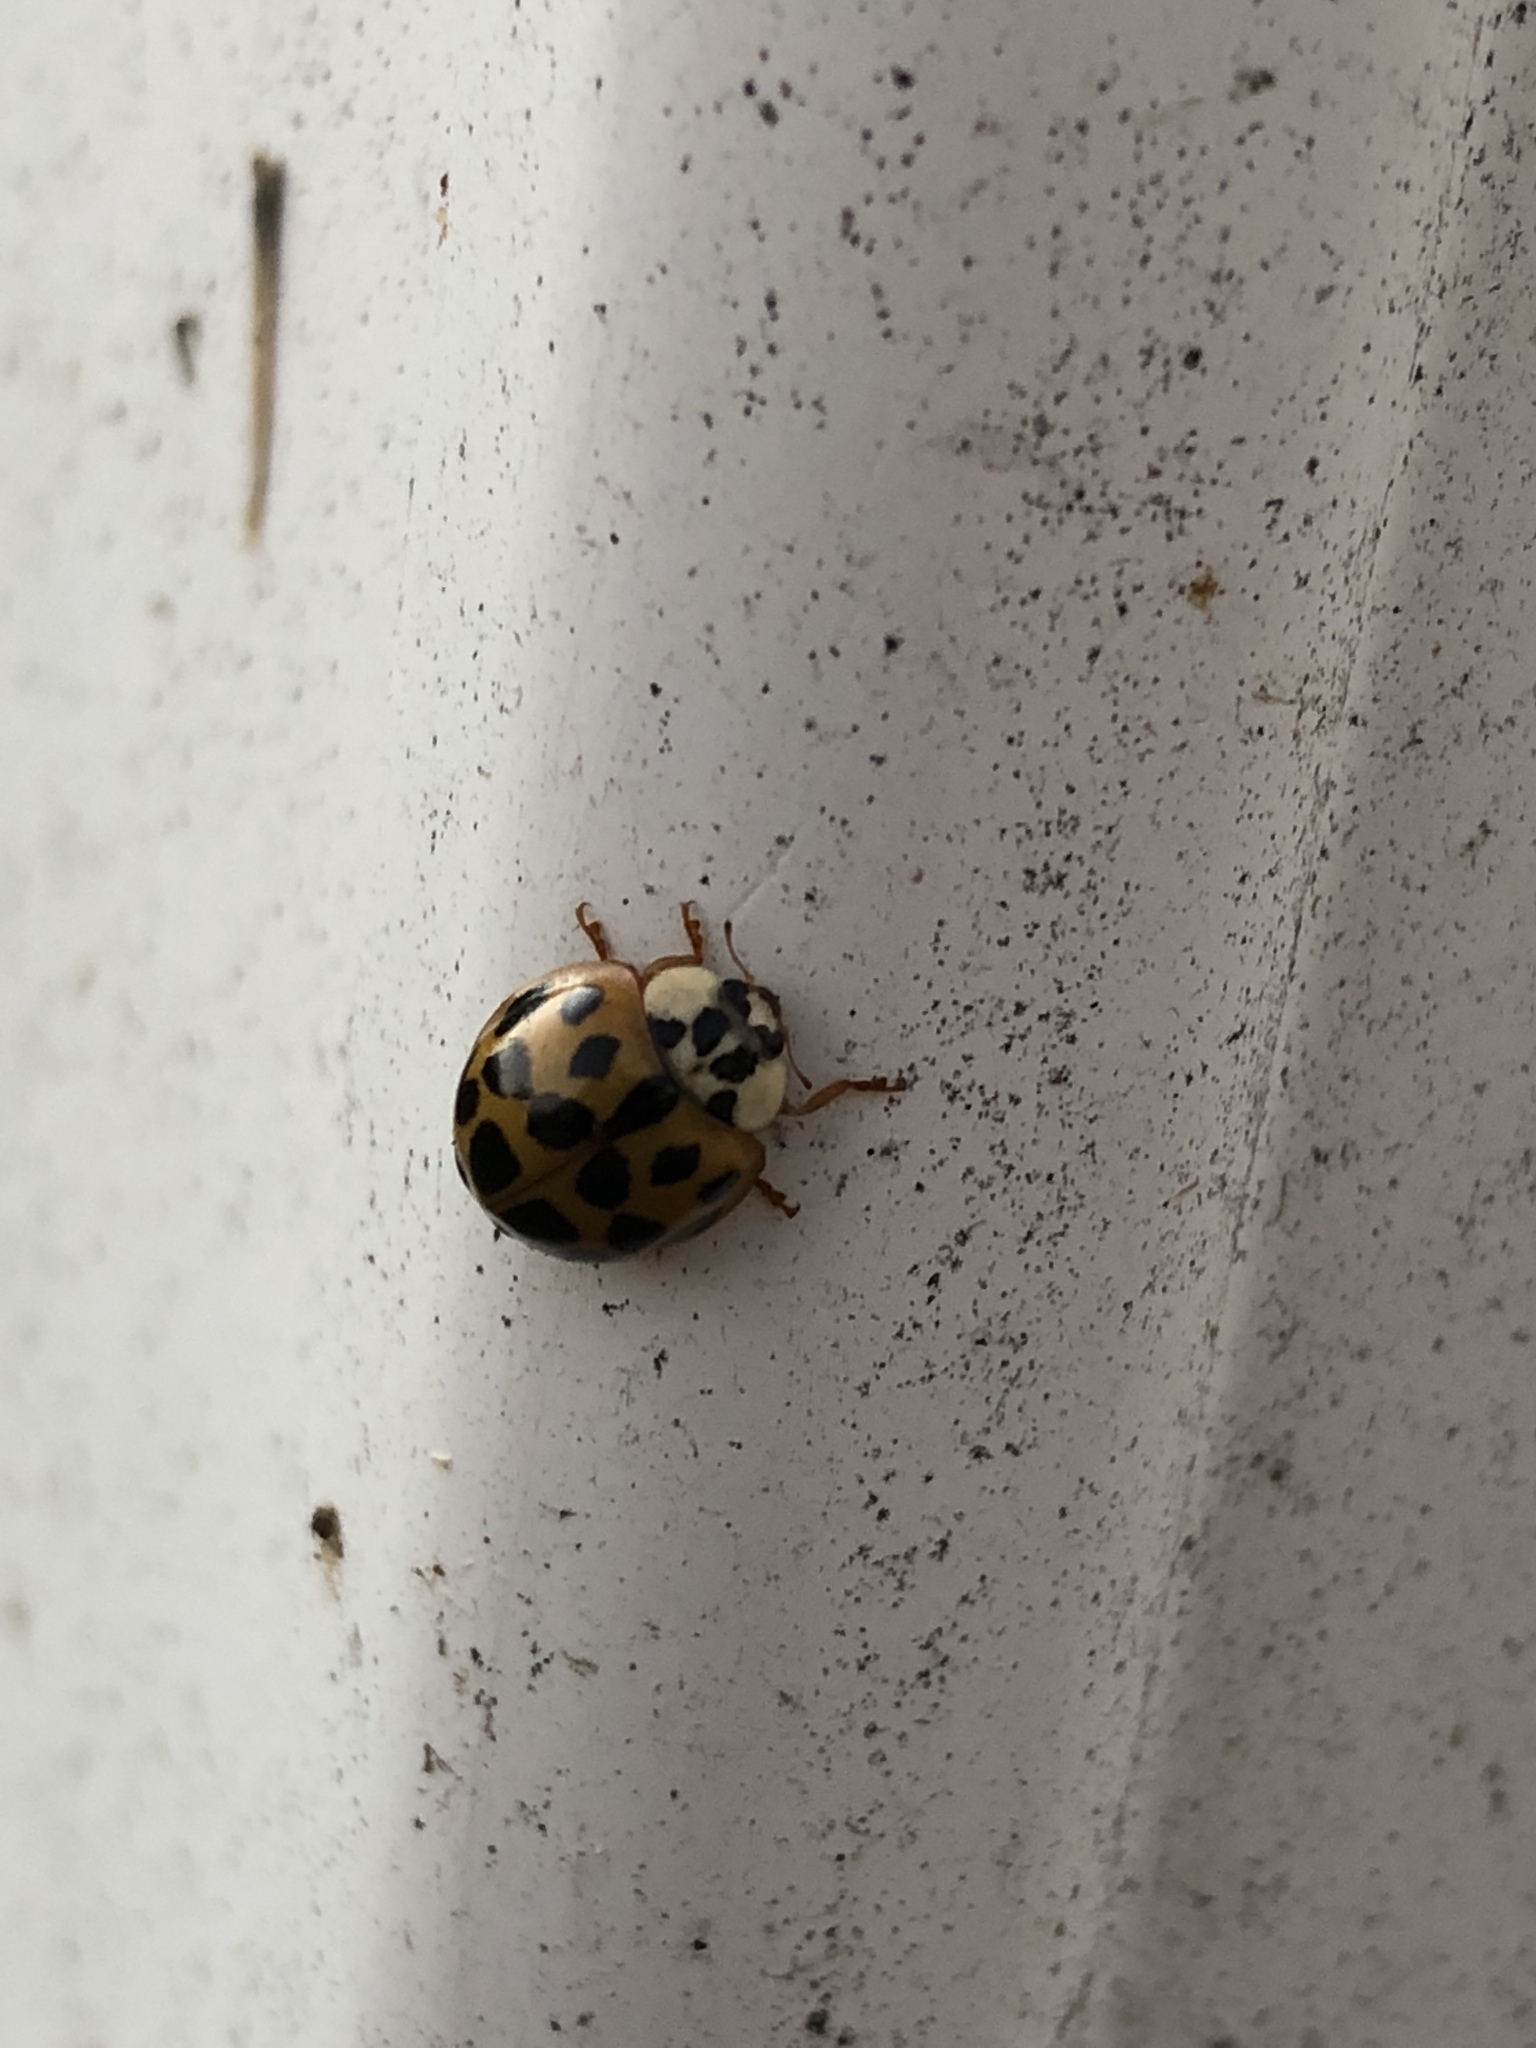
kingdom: Animalia
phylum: Arthropoda
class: Insecta
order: Coleoptera
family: Coccinellidae
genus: Harmonia
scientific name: Harmonia axyridis
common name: Harlequin ladybird
